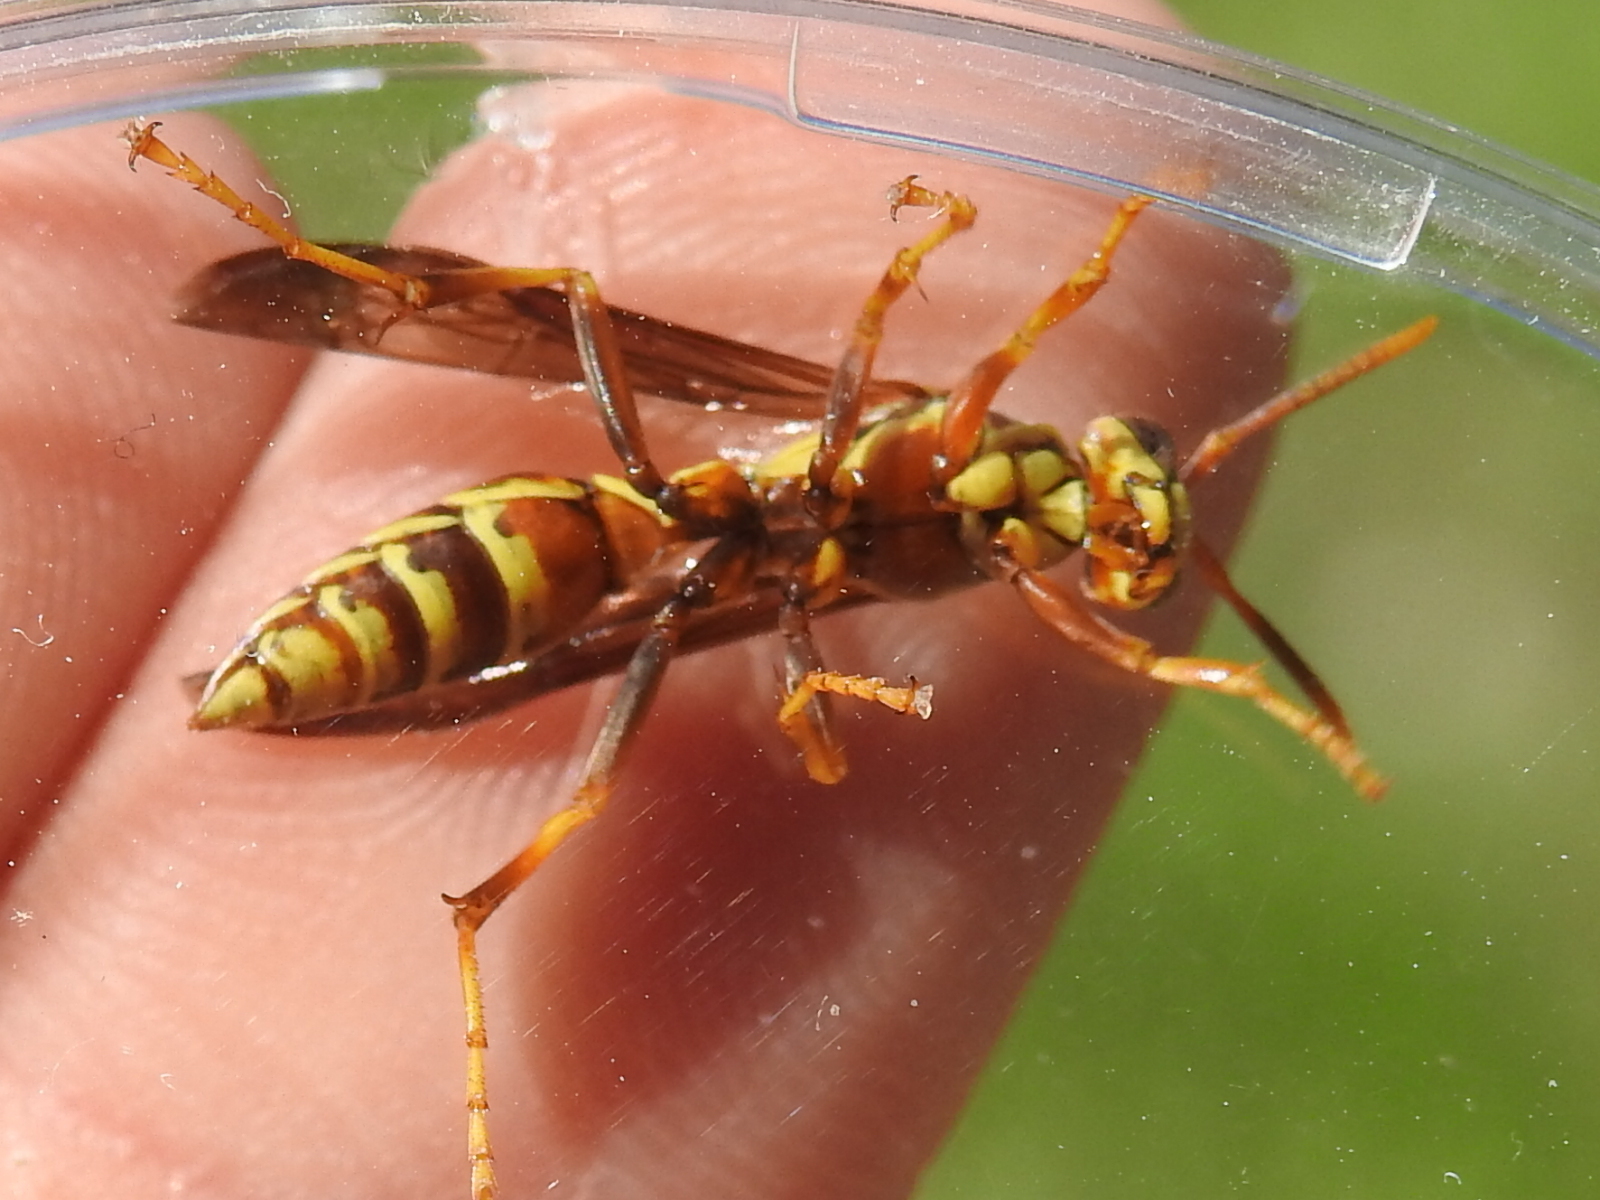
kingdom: Animalia
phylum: Arthropoda
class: Insecta
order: Hymenoptera
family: Eumenidae
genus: Polistes
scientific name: Polistes exclamans
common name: Paper wasp
